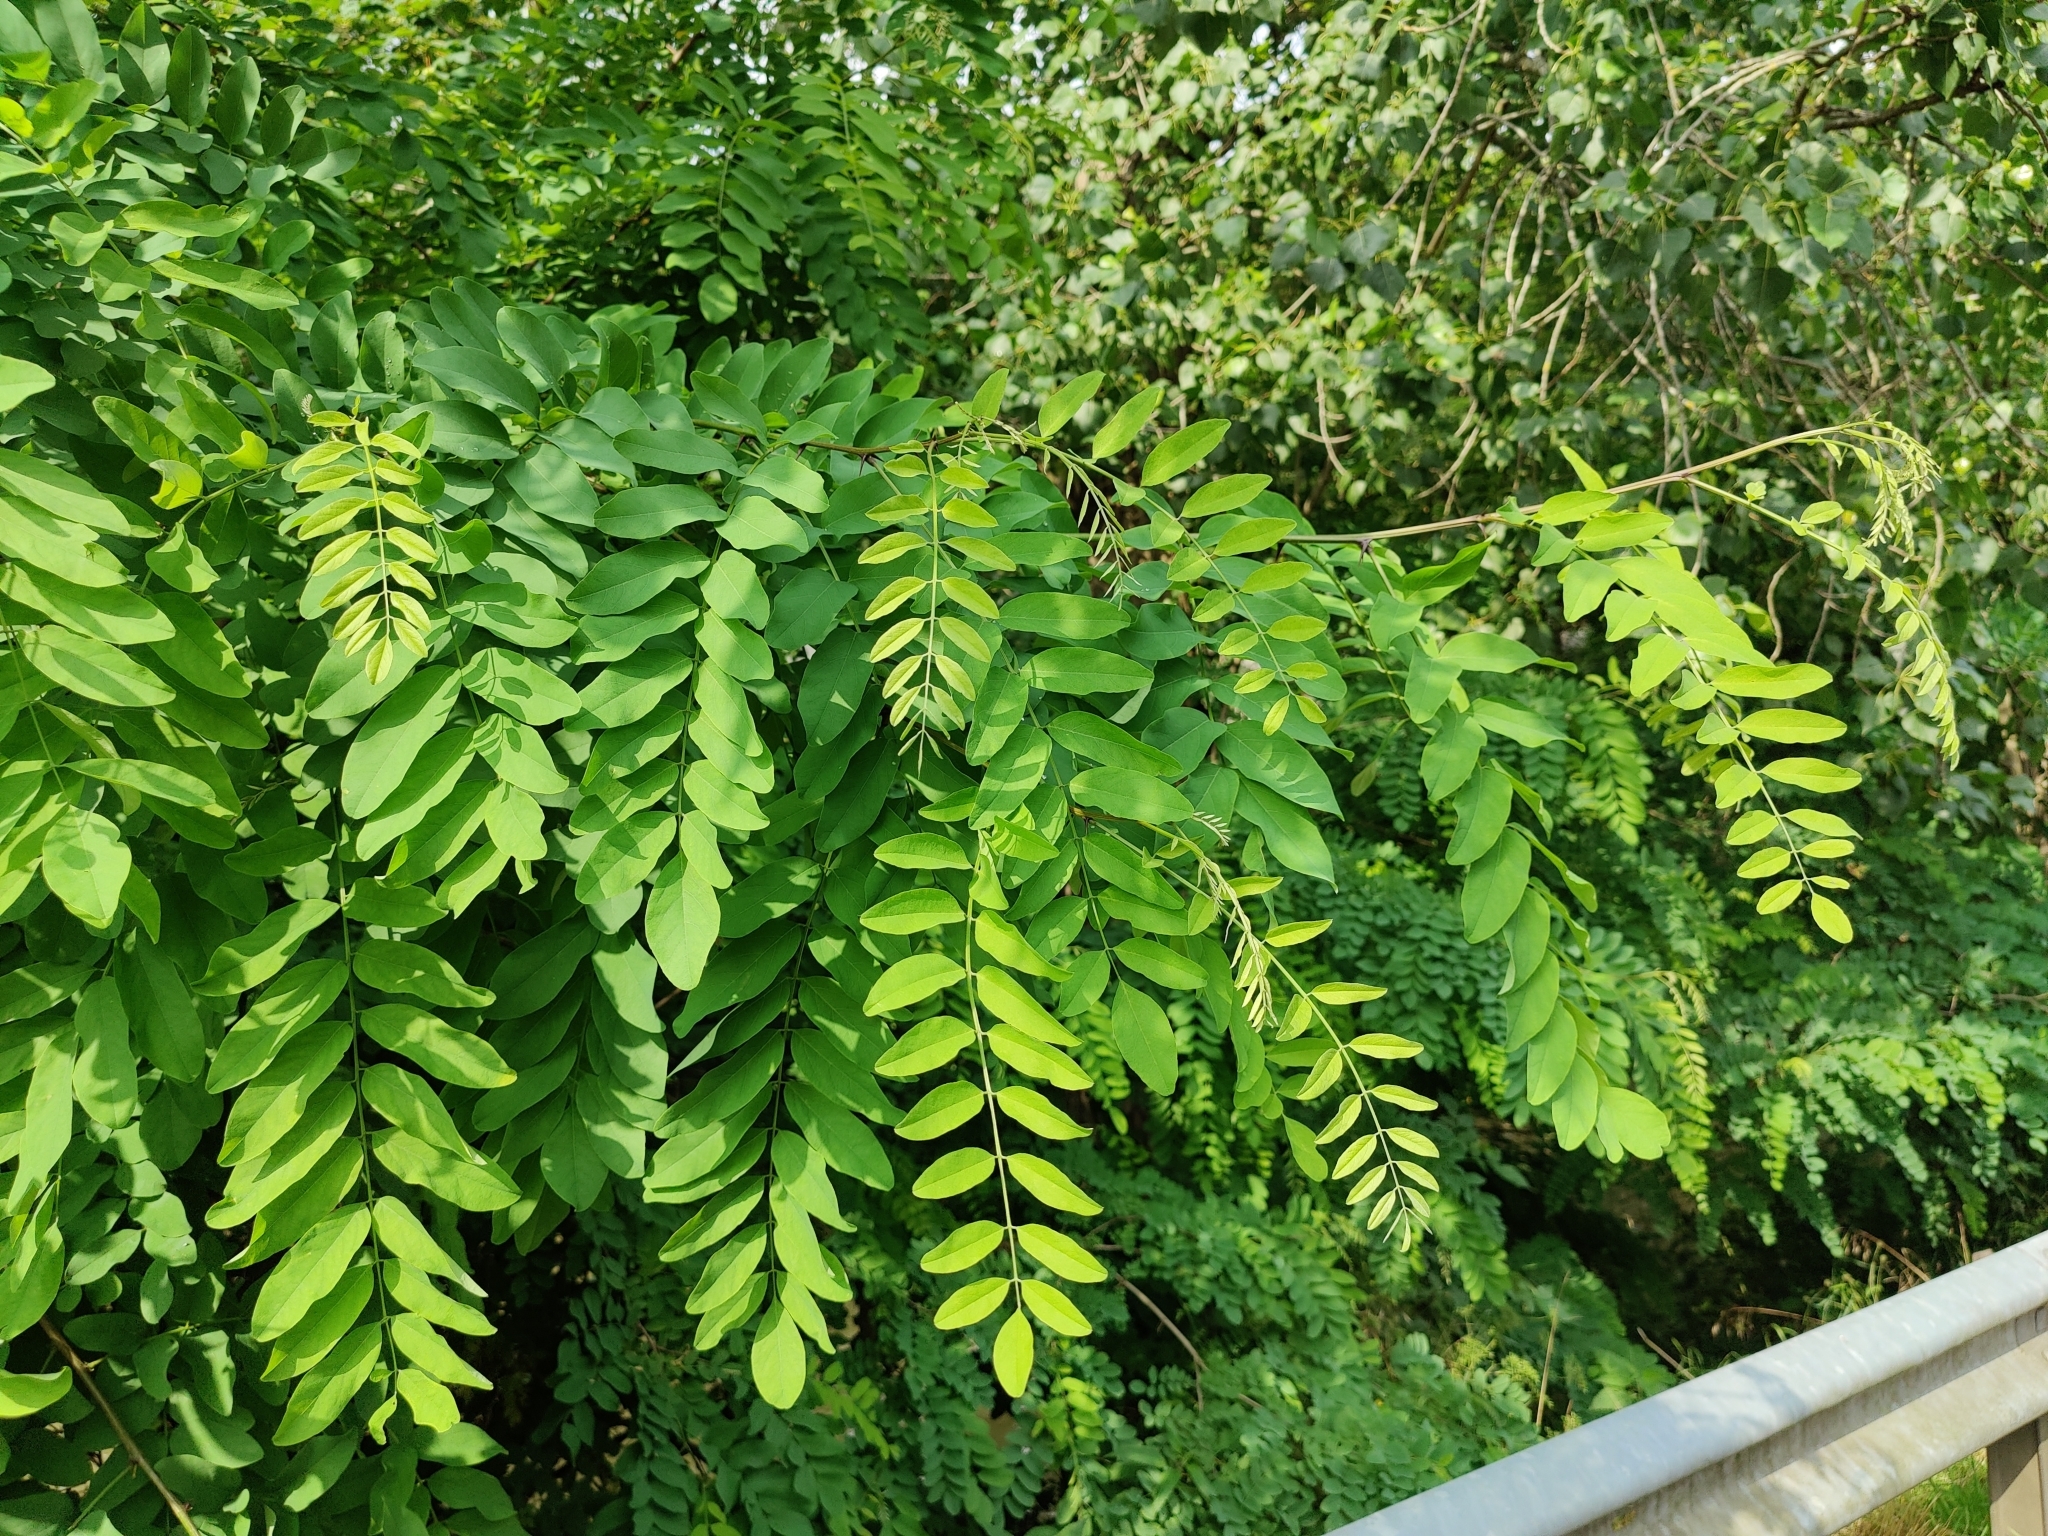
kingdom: Plantae
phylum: Tracheophyta
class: Magnoliopsida
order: Fabales
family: Fabaceae
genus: Robinia
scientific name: Robinia pseudoacacia
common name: Black locust
